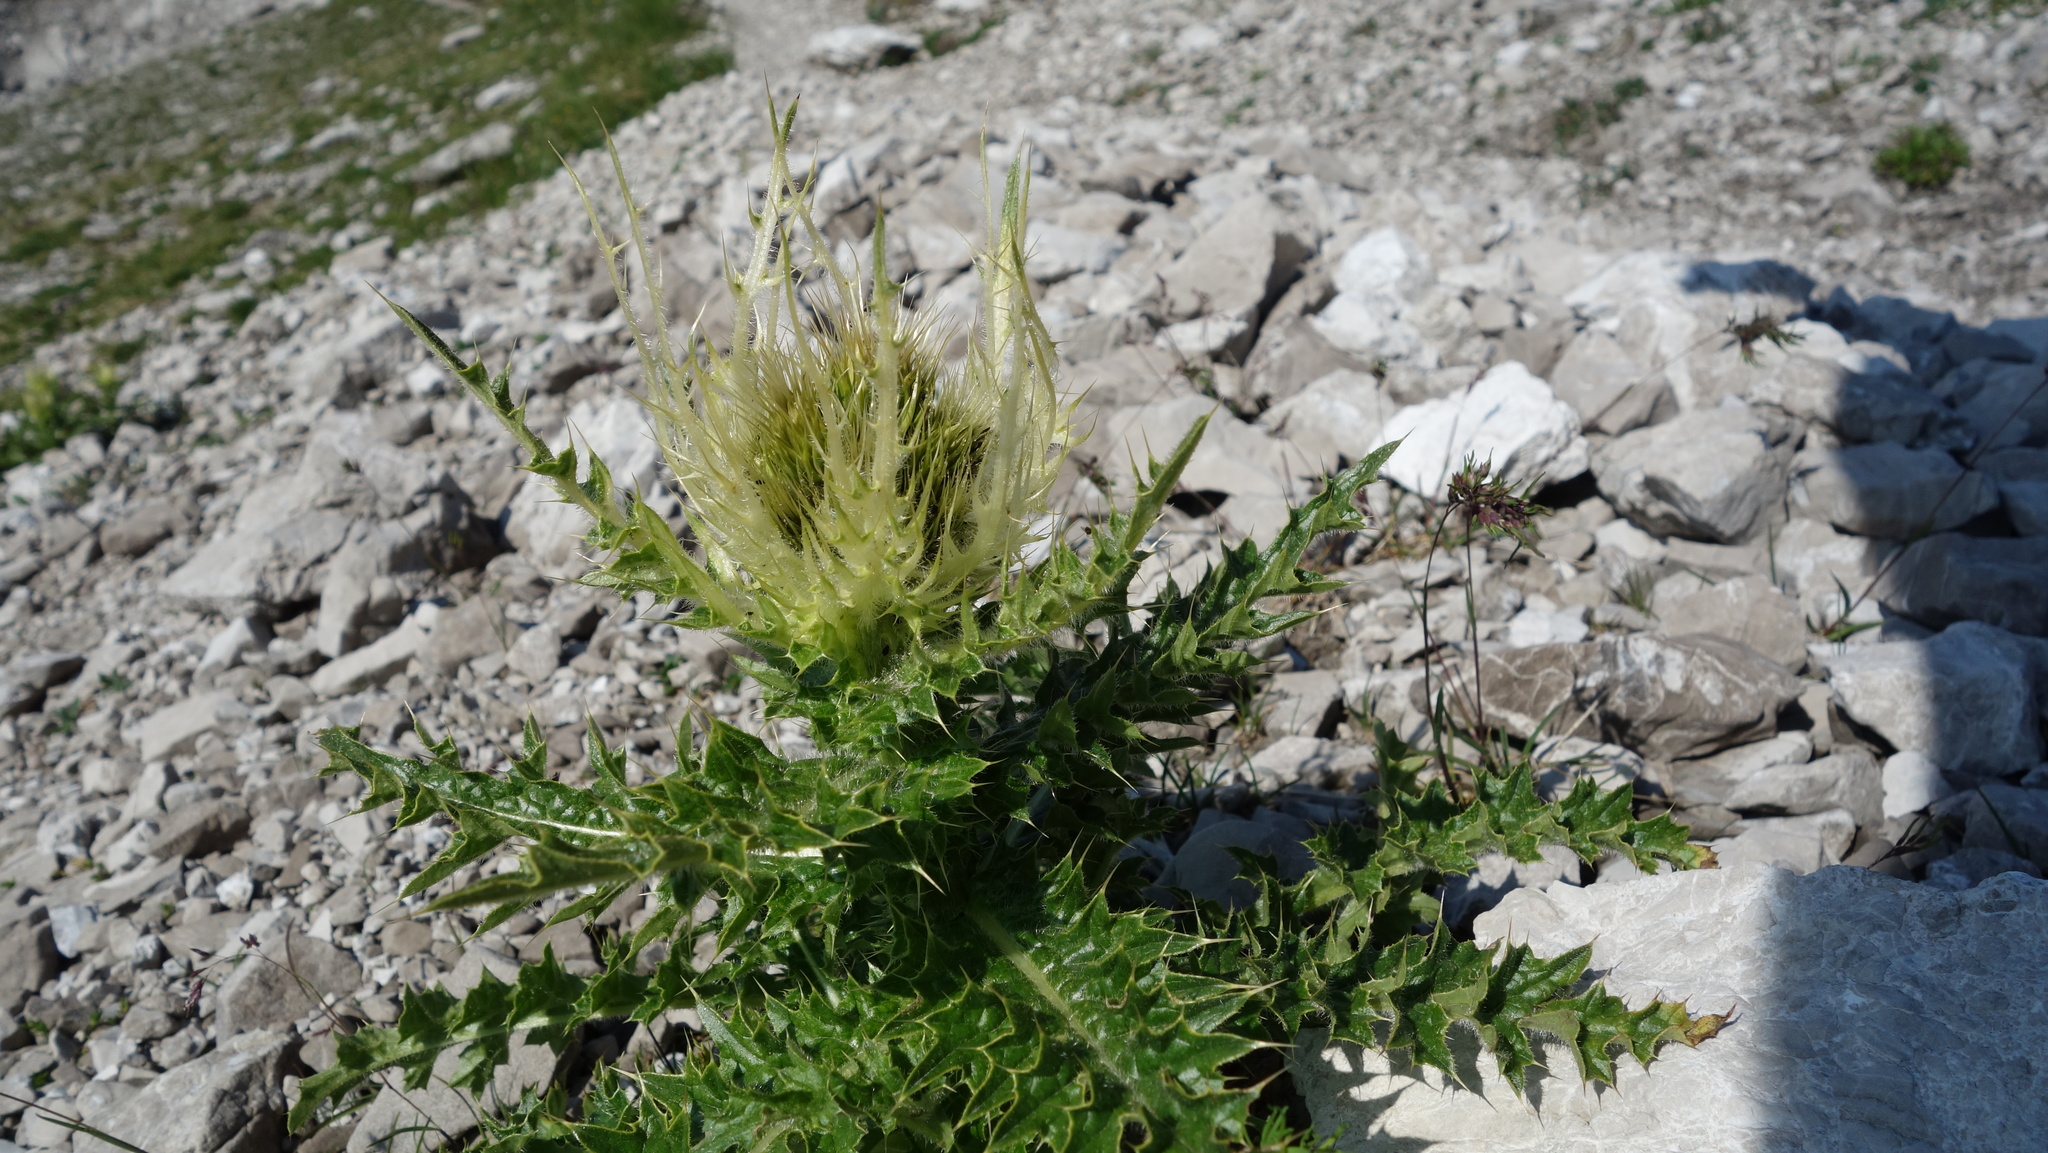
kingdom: Plantae
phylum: Tracheophyta
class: Magnoliopsida
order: Asterales
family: Asteraceae
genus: Cirsium
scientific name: Cirsium spinosissimum
